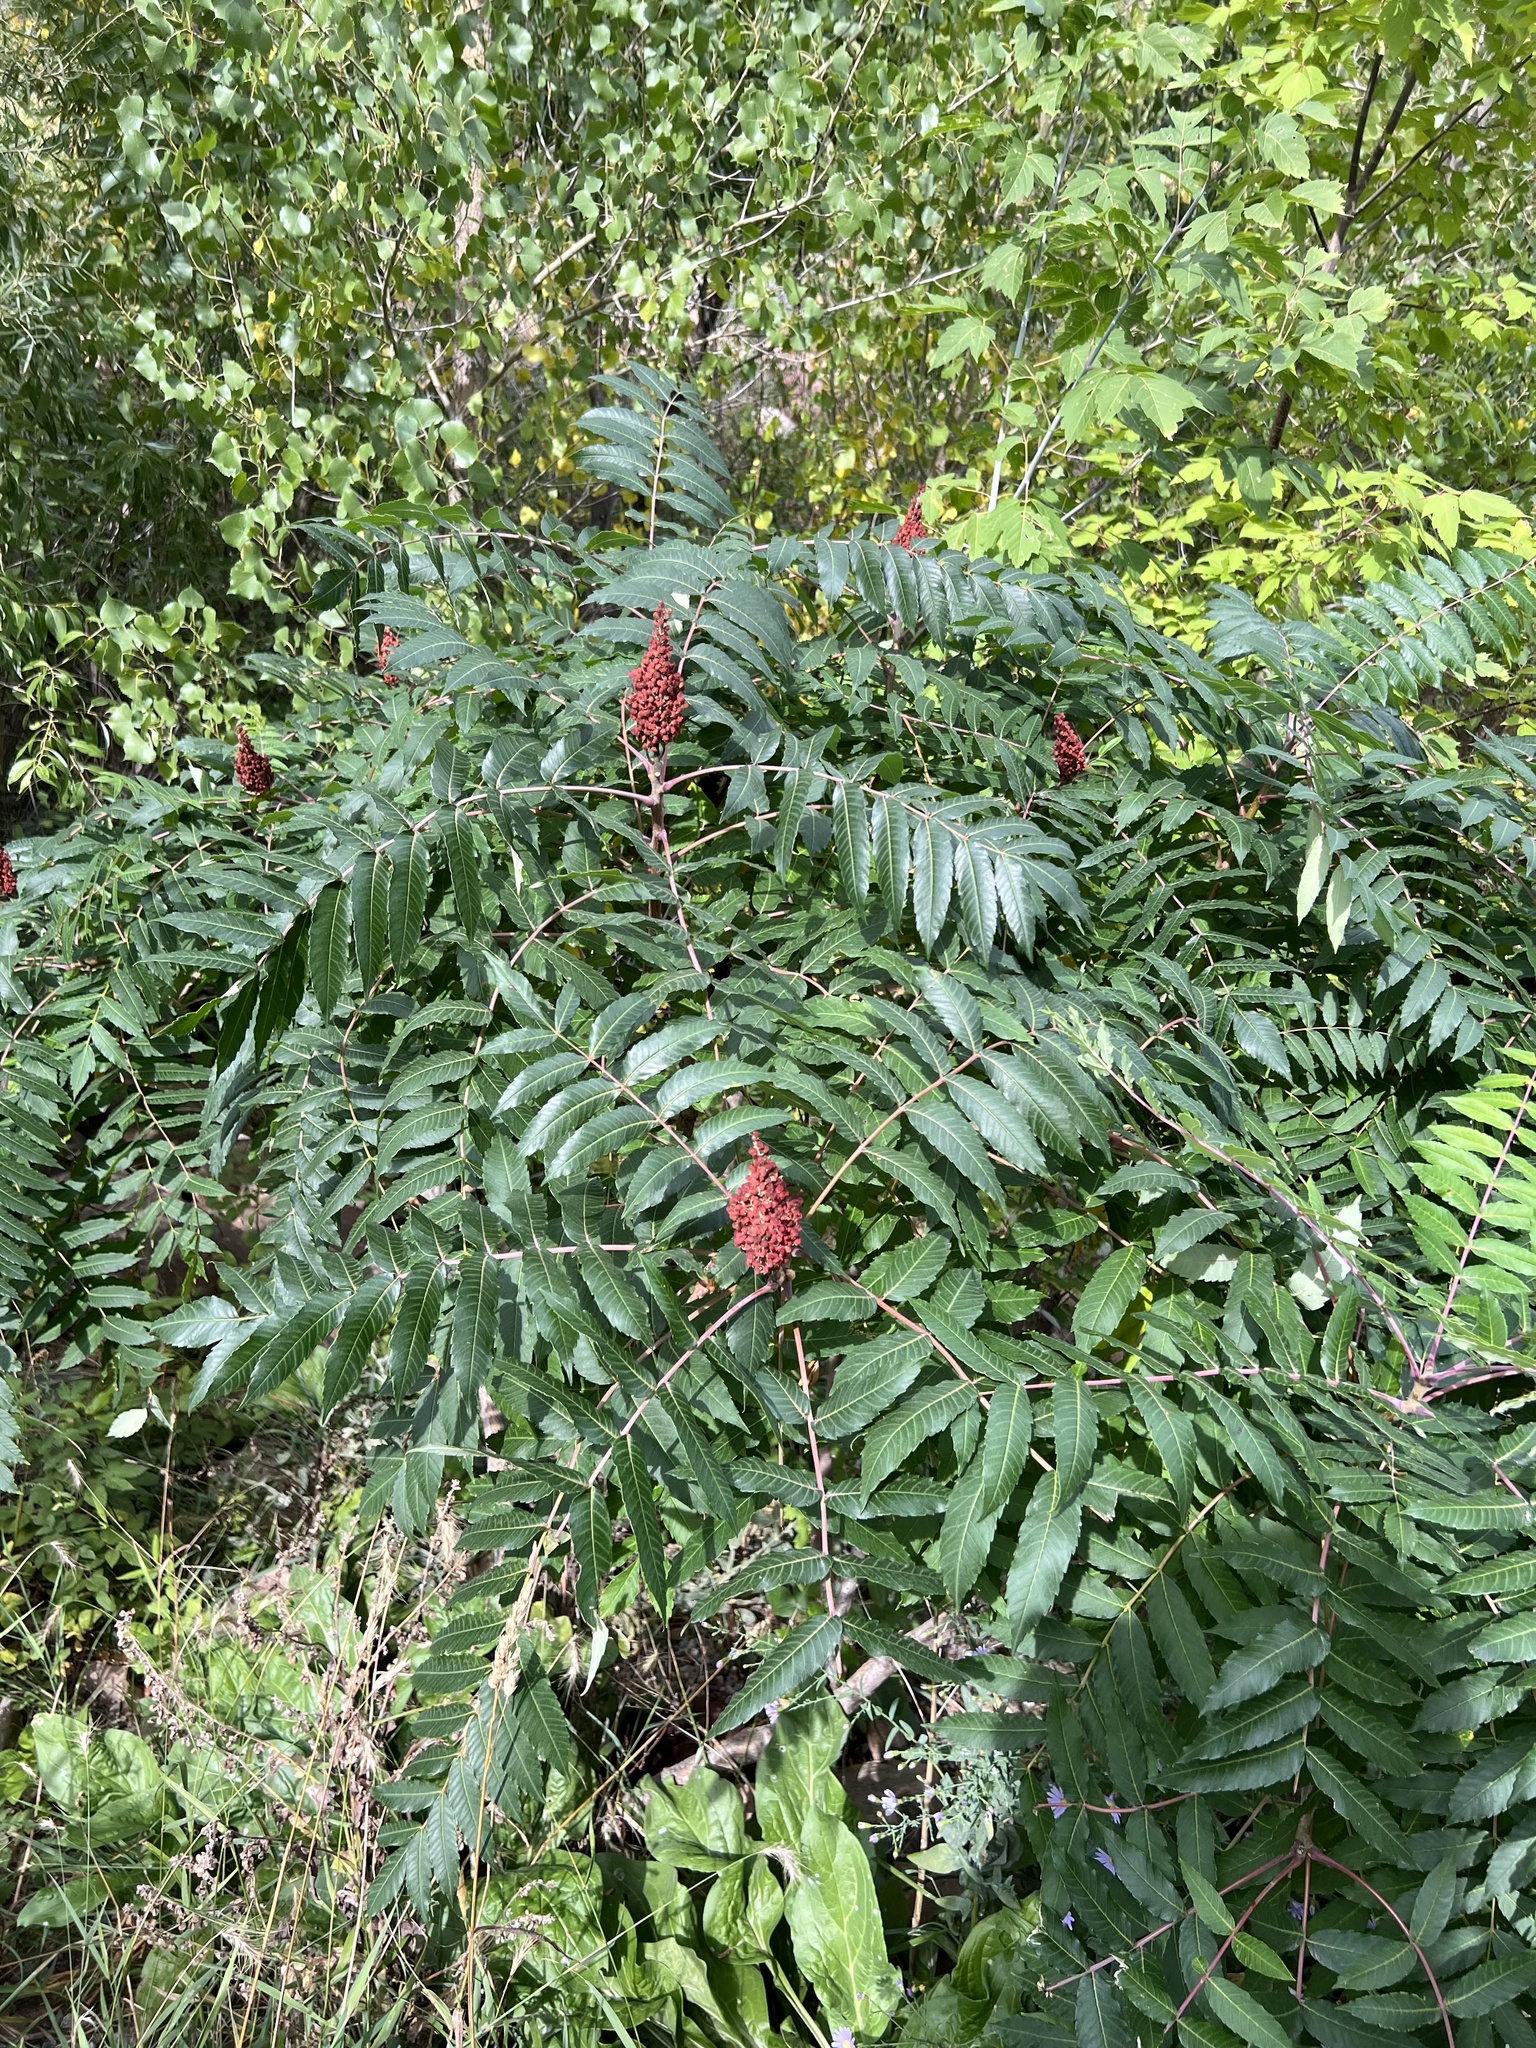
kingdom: Plantae
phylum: Tracheophyta
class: Magnoliopsida
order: Sapindales
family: Anacardiaceae
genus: Rhus
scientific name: Rhus glabra
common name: Scarlet sumac
